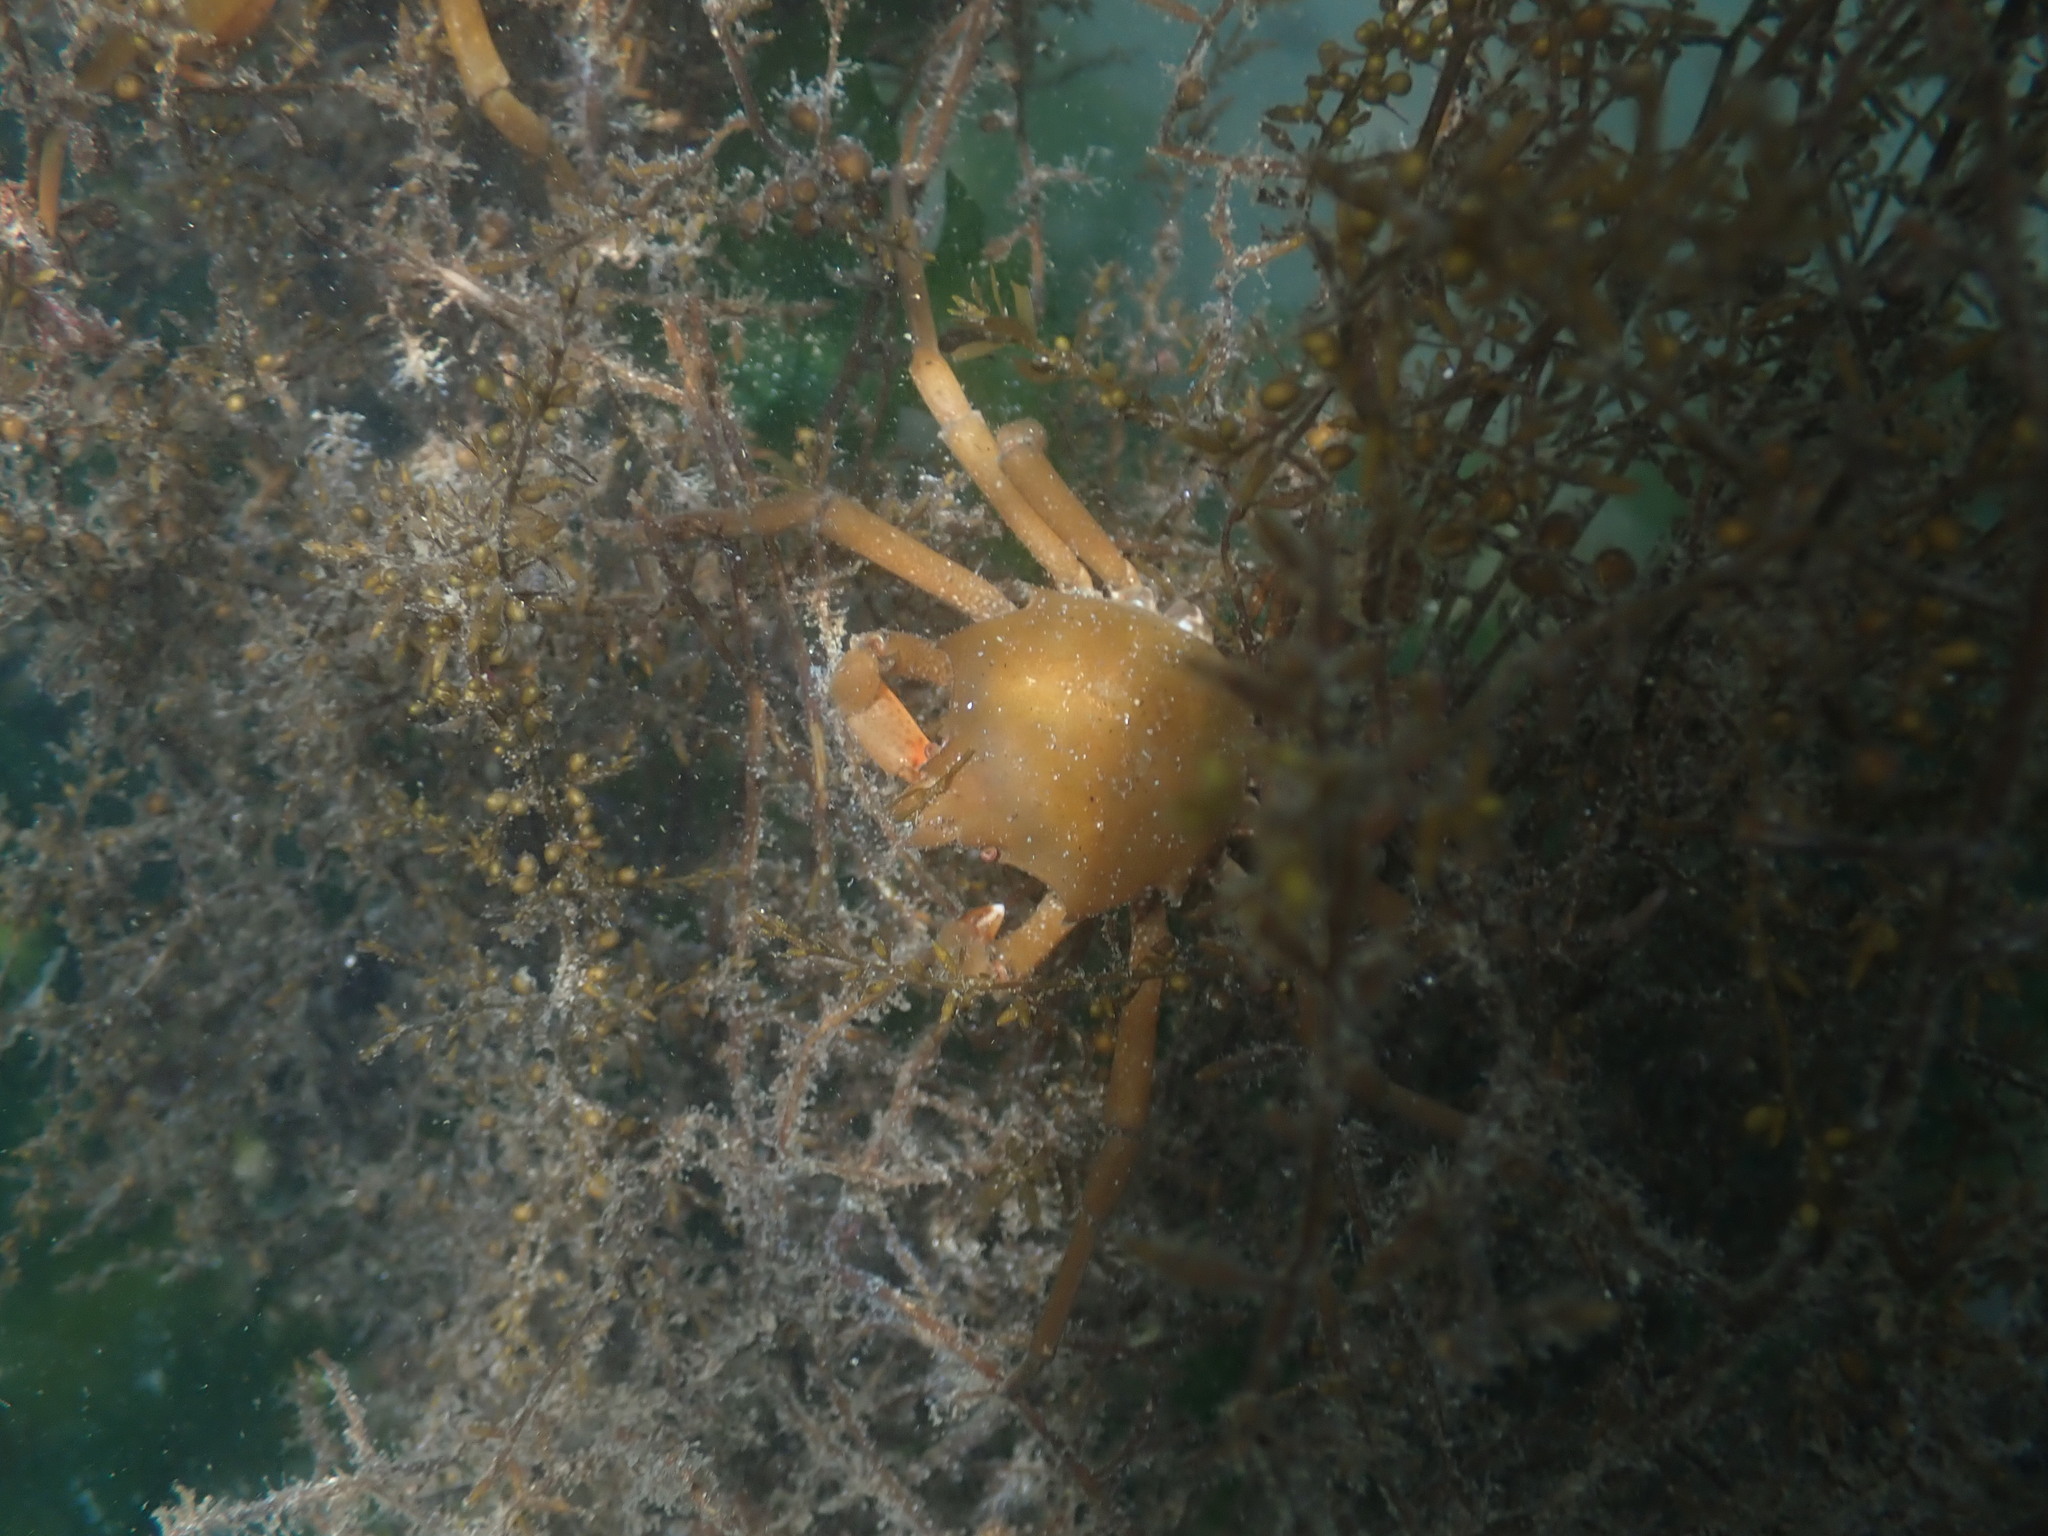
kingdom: Animalia
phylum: Arthropoda
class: Malacostraca
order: Decapoda
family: Epialtidae
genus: Pugettia
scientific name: Pugettia producta
